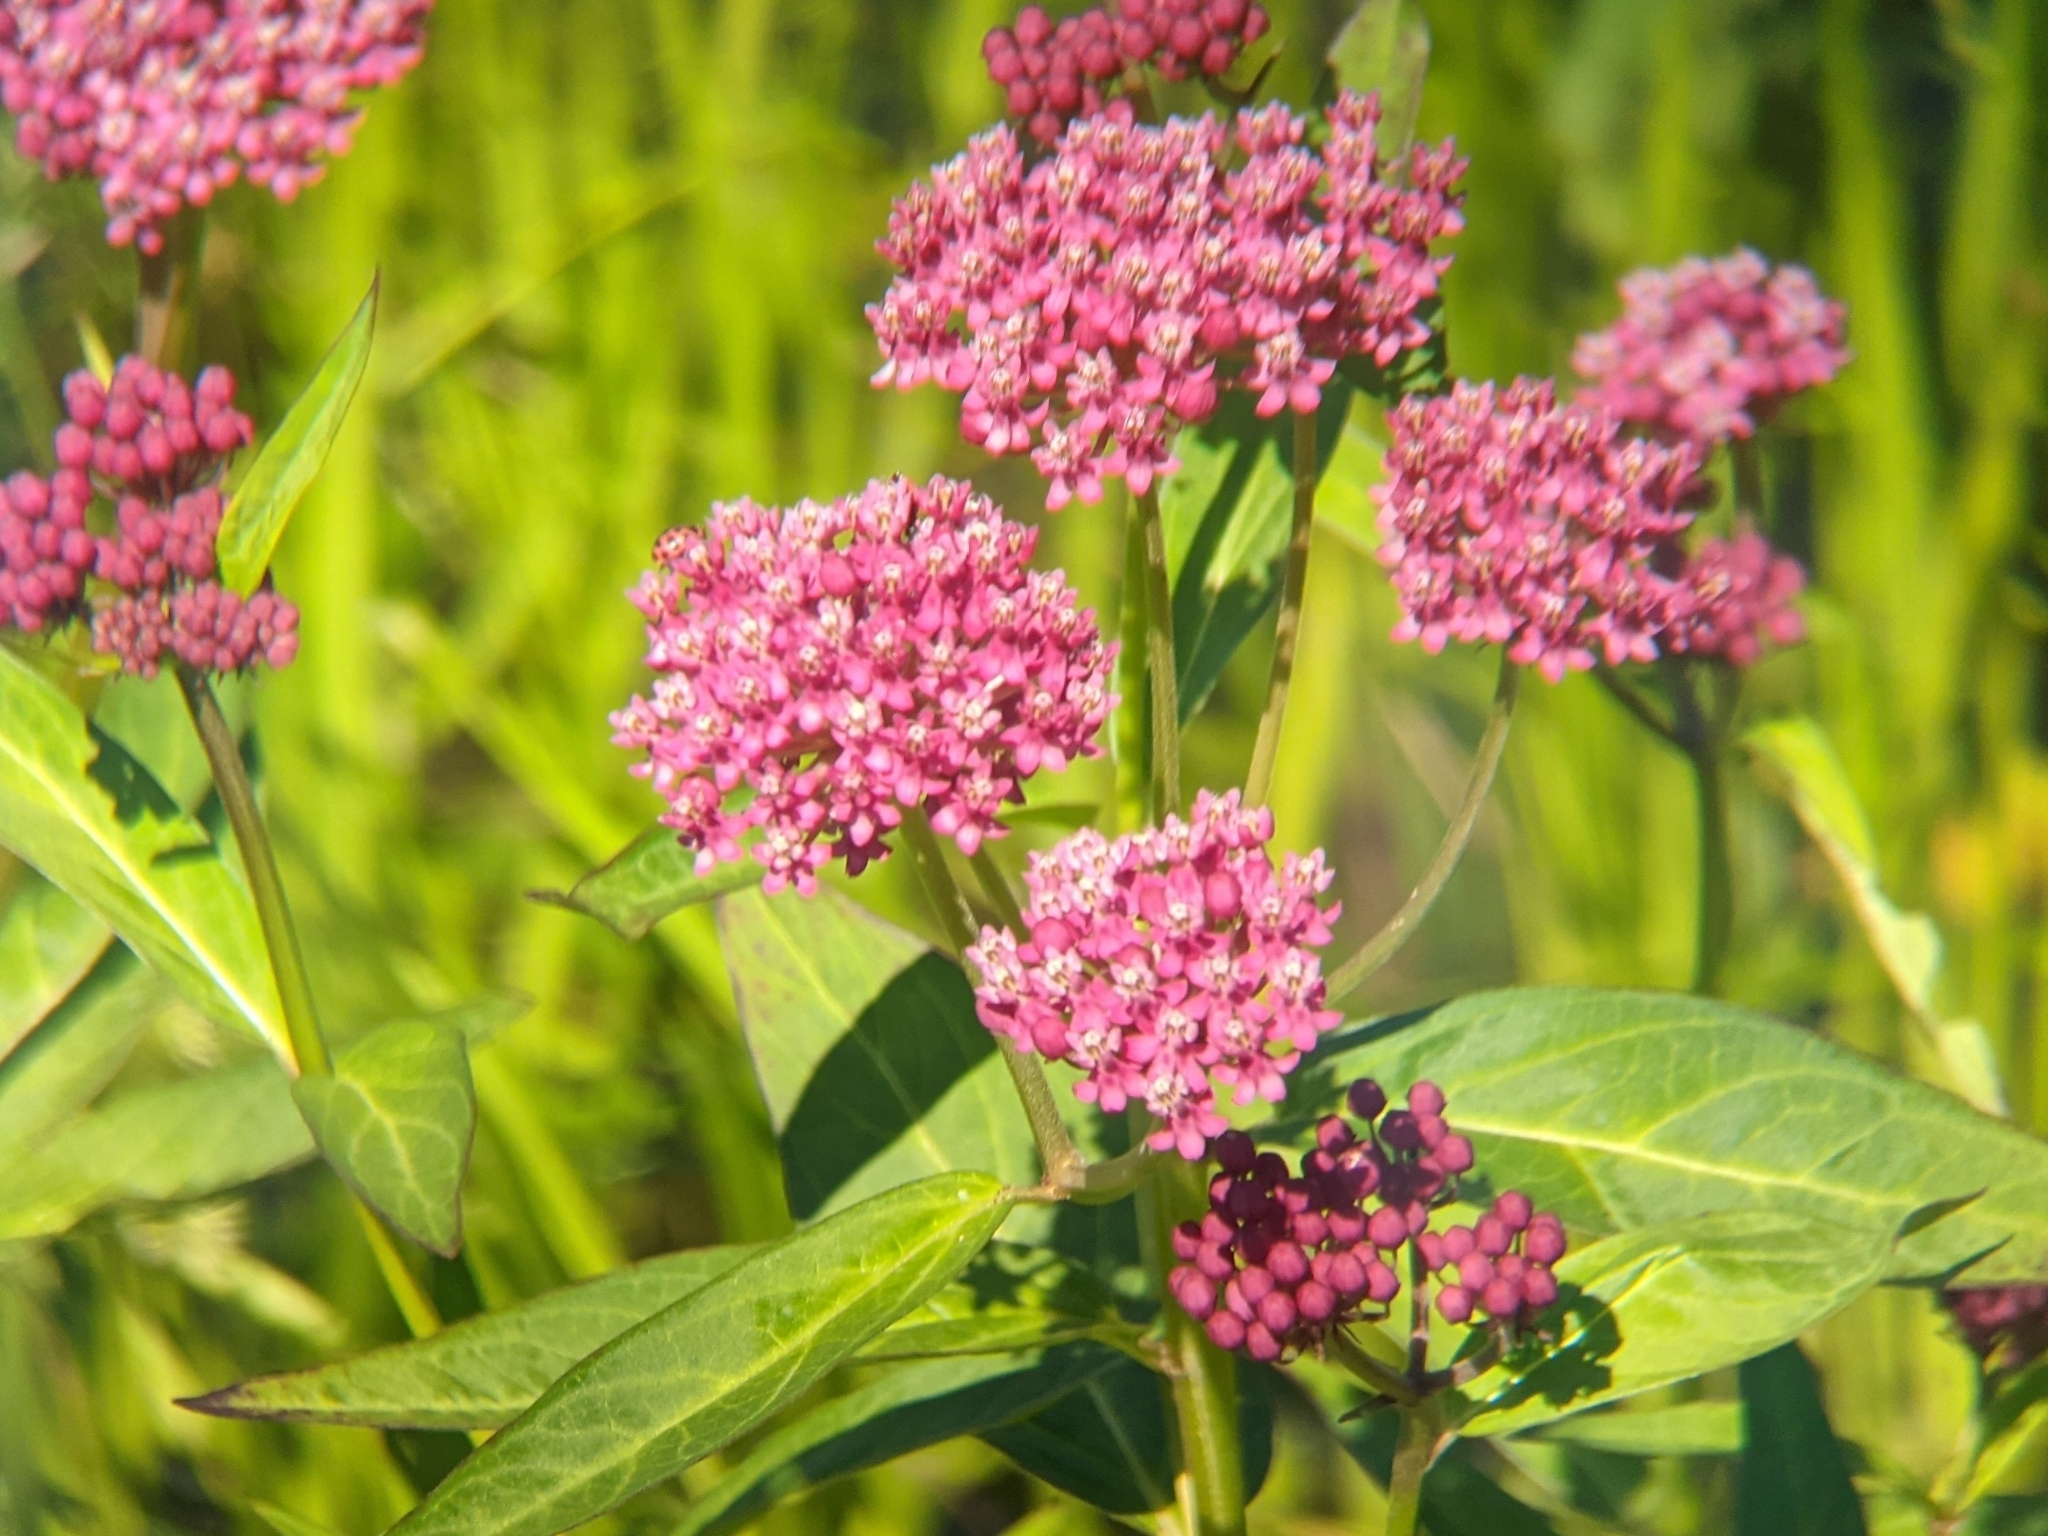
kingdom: Plantae
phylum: Tracheophyta
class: Magnoliopsida
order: Gentianales
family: Apocynaceae
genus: Asclepias
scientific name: Asclepias incarnata
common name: Swamp milkweed
